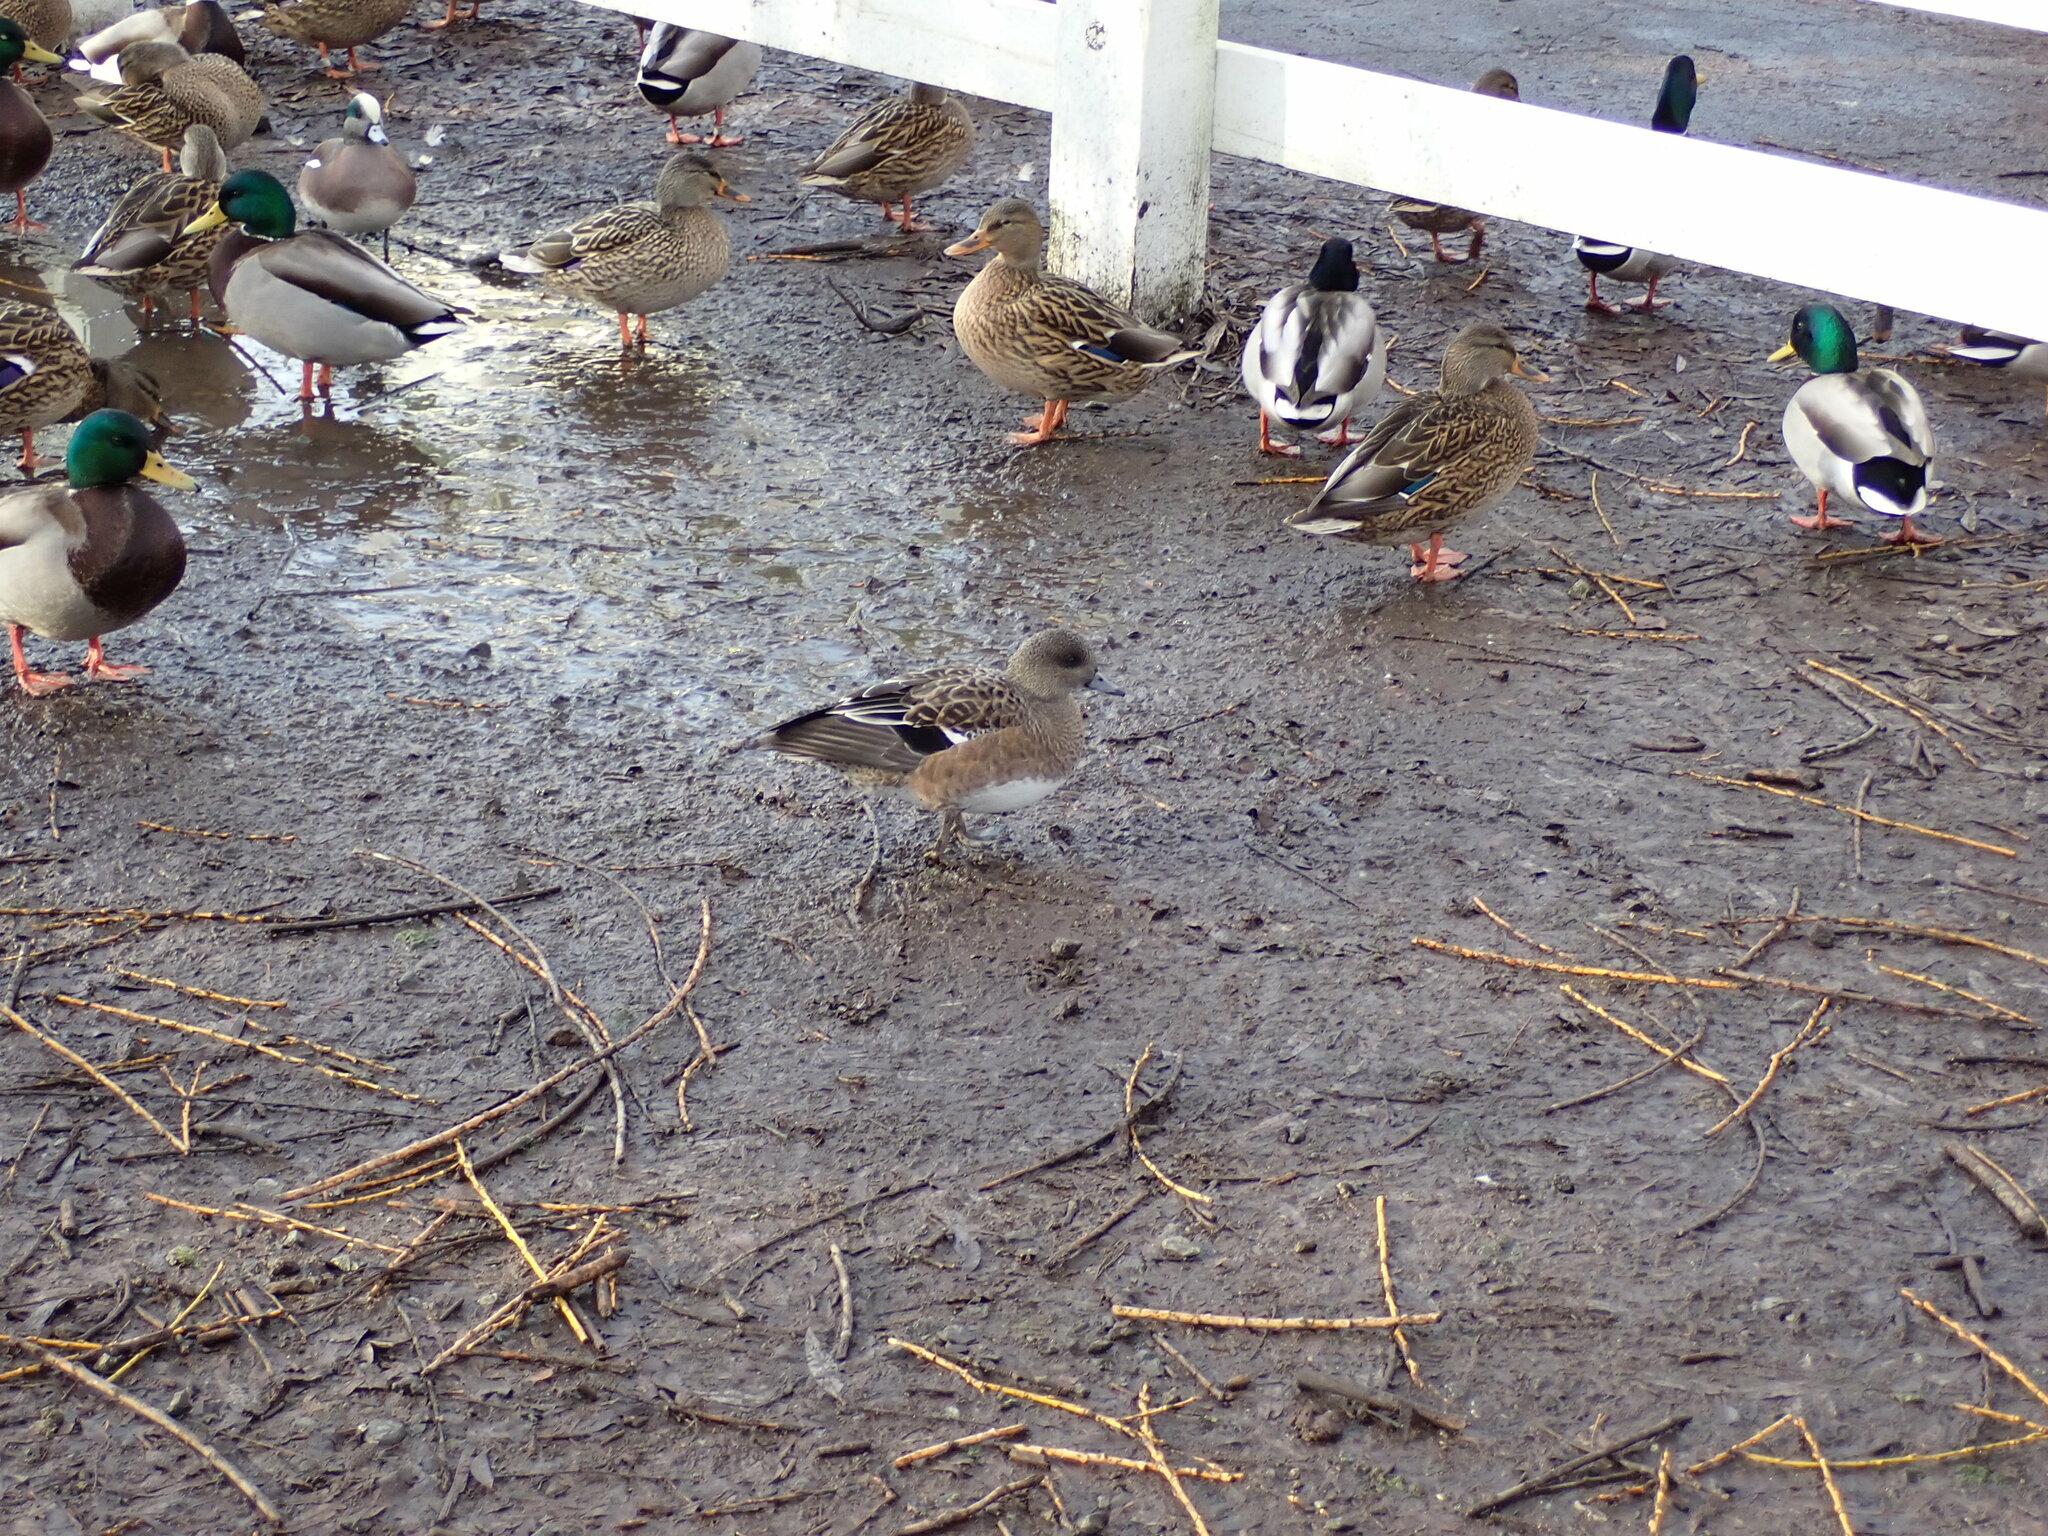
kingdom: Animalia
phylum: Chordata
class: Aves
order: Anseriformes
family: Anatidae
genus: Mareca
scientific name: Mareca americana
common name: American wigeon
